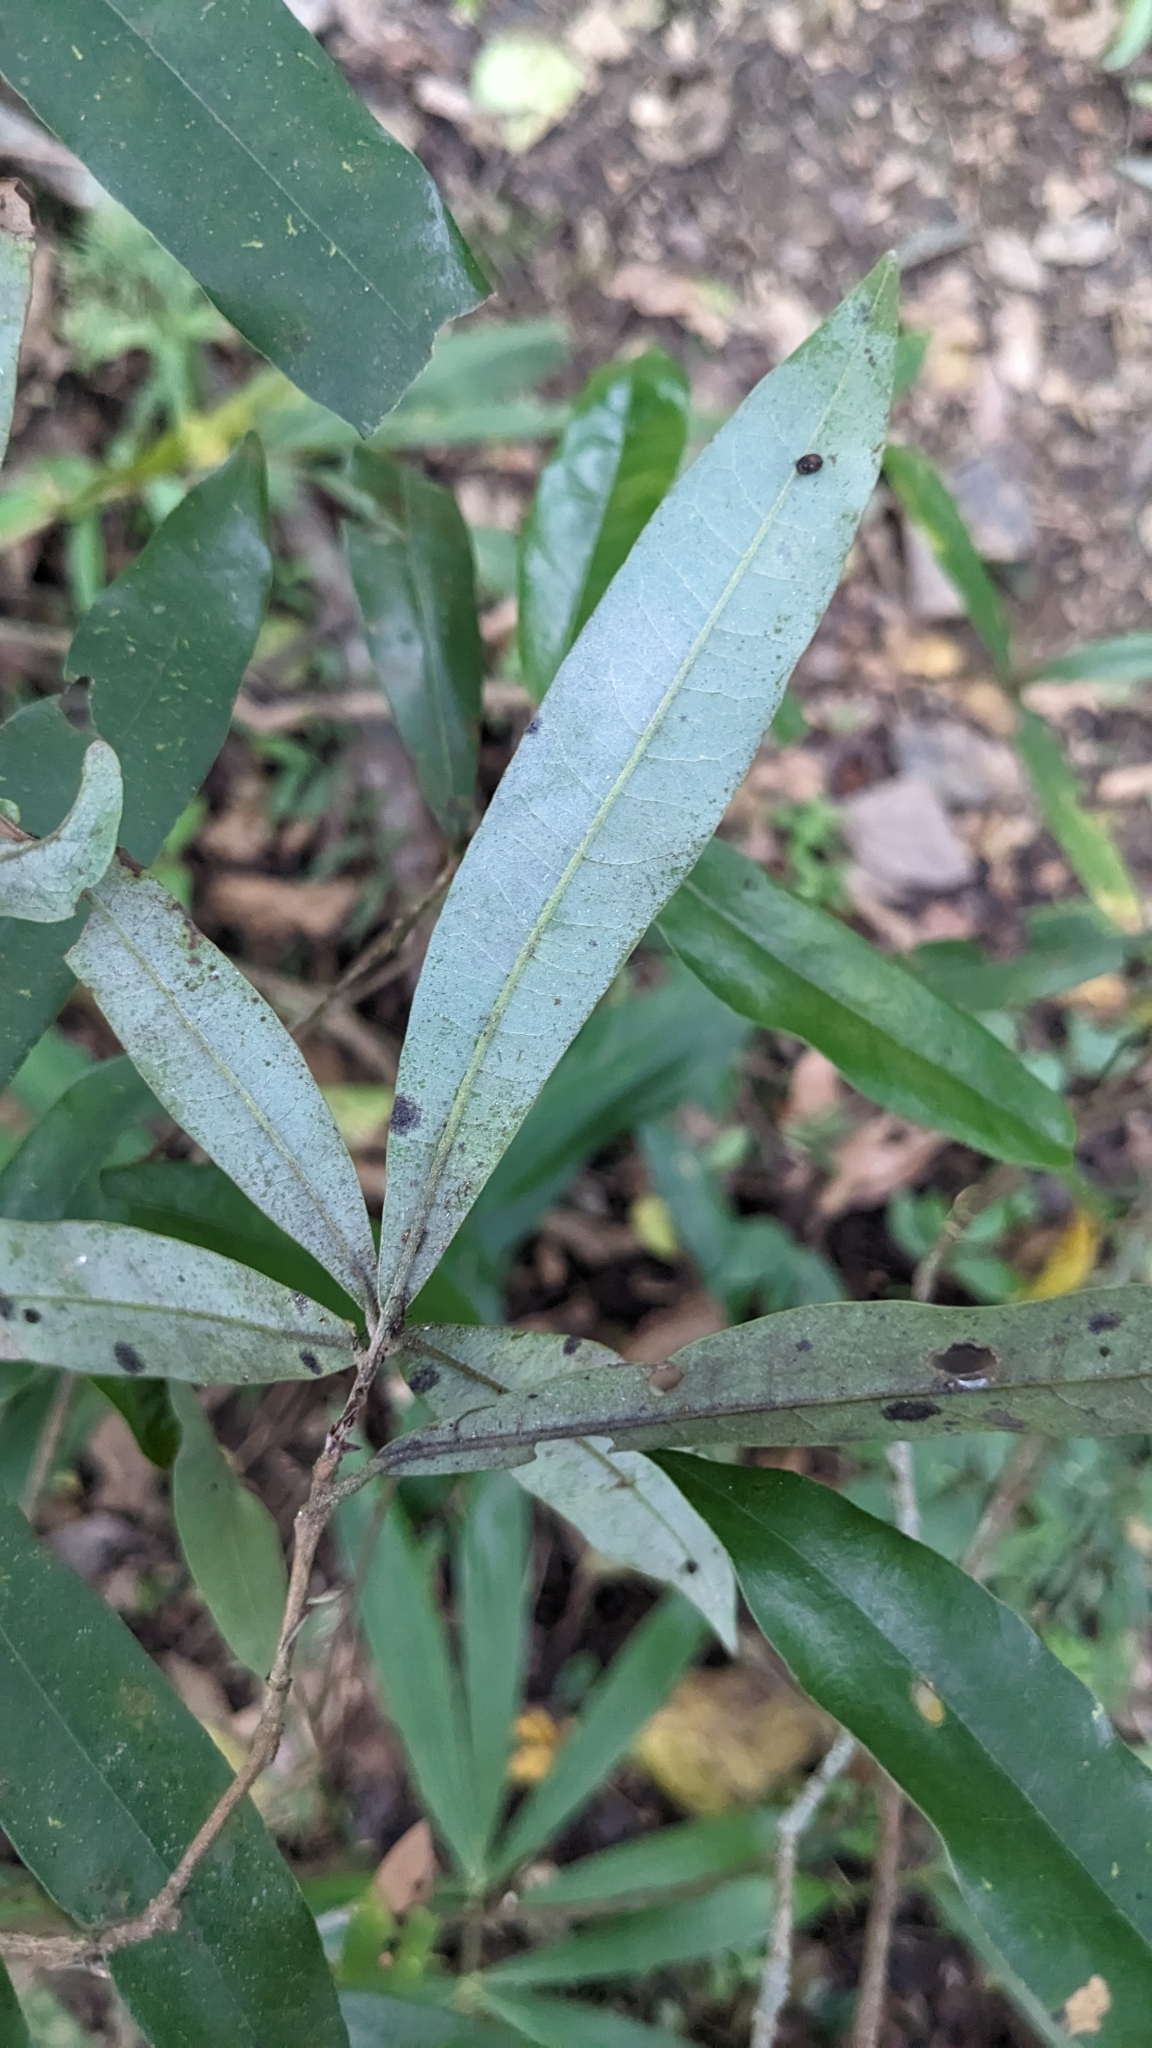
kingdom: Plantae
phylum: Tracheophyta
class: Magnoliopsida
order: Laurales
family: Lauraceae
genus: Litsea
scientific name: Litsea hypophaea
